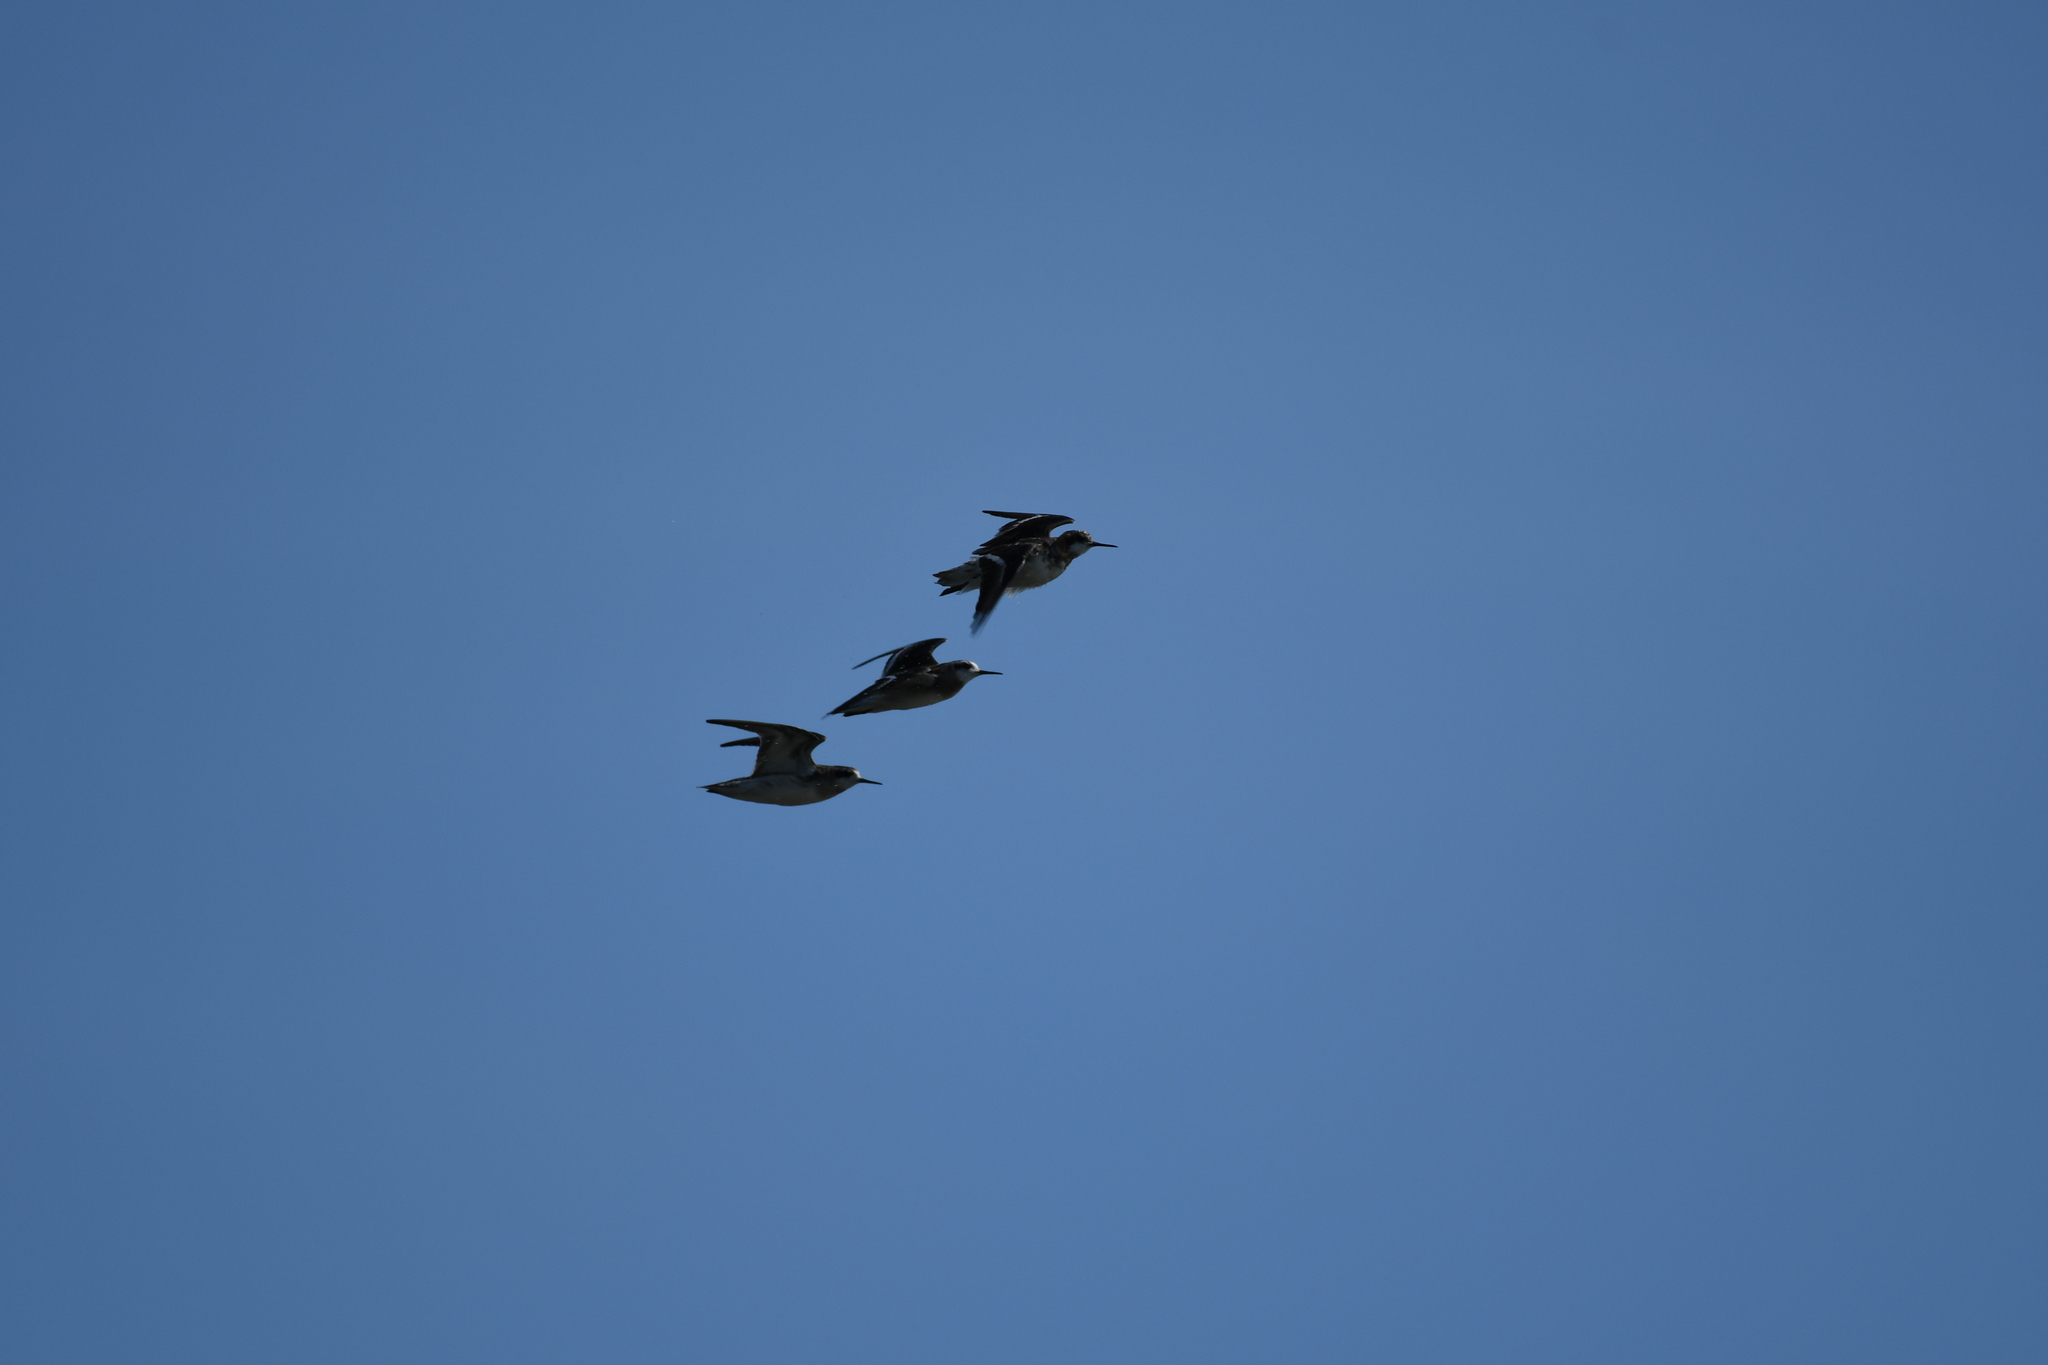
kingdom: Animalia
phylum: Chordata
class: Aves
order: Charadriiformes
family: Scolopacidae
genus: Phalaropus
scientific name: Phalaropus lobatus
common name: Red-necked phalarope
